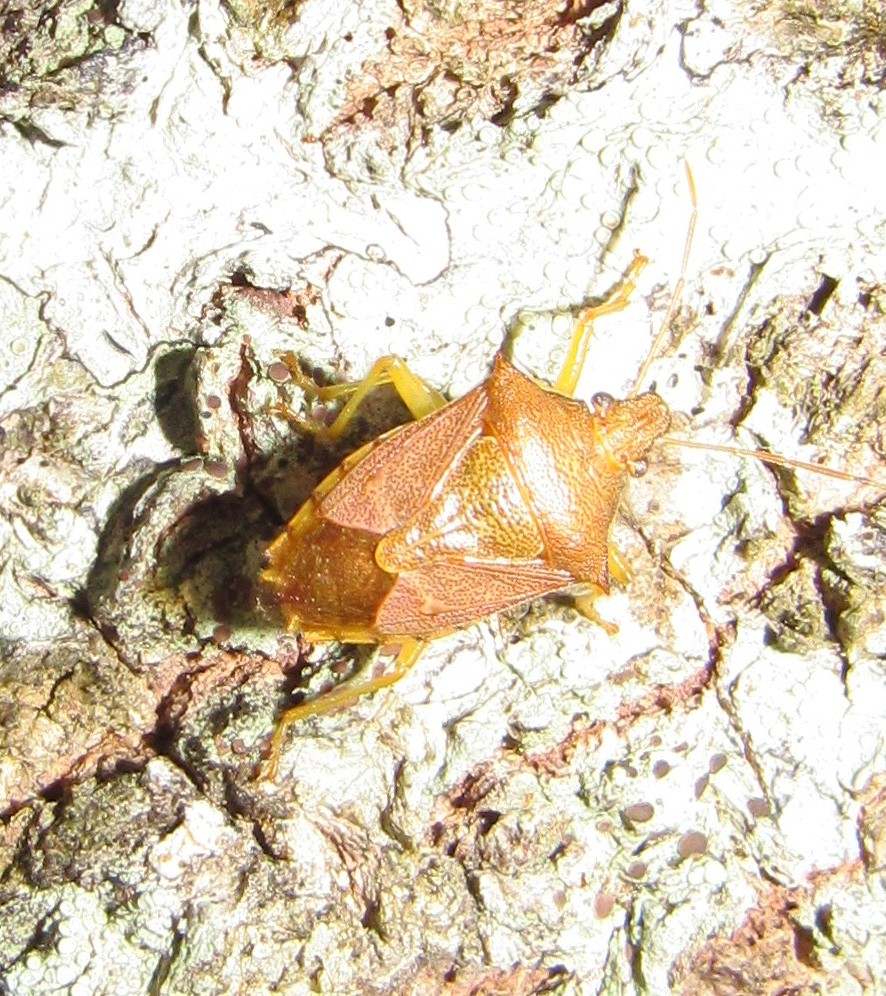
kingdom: Animalia
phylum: Arthropoda
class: Insecta
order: Hemiptera
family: Pentatomidae
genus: Supputius
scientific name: Supputius
